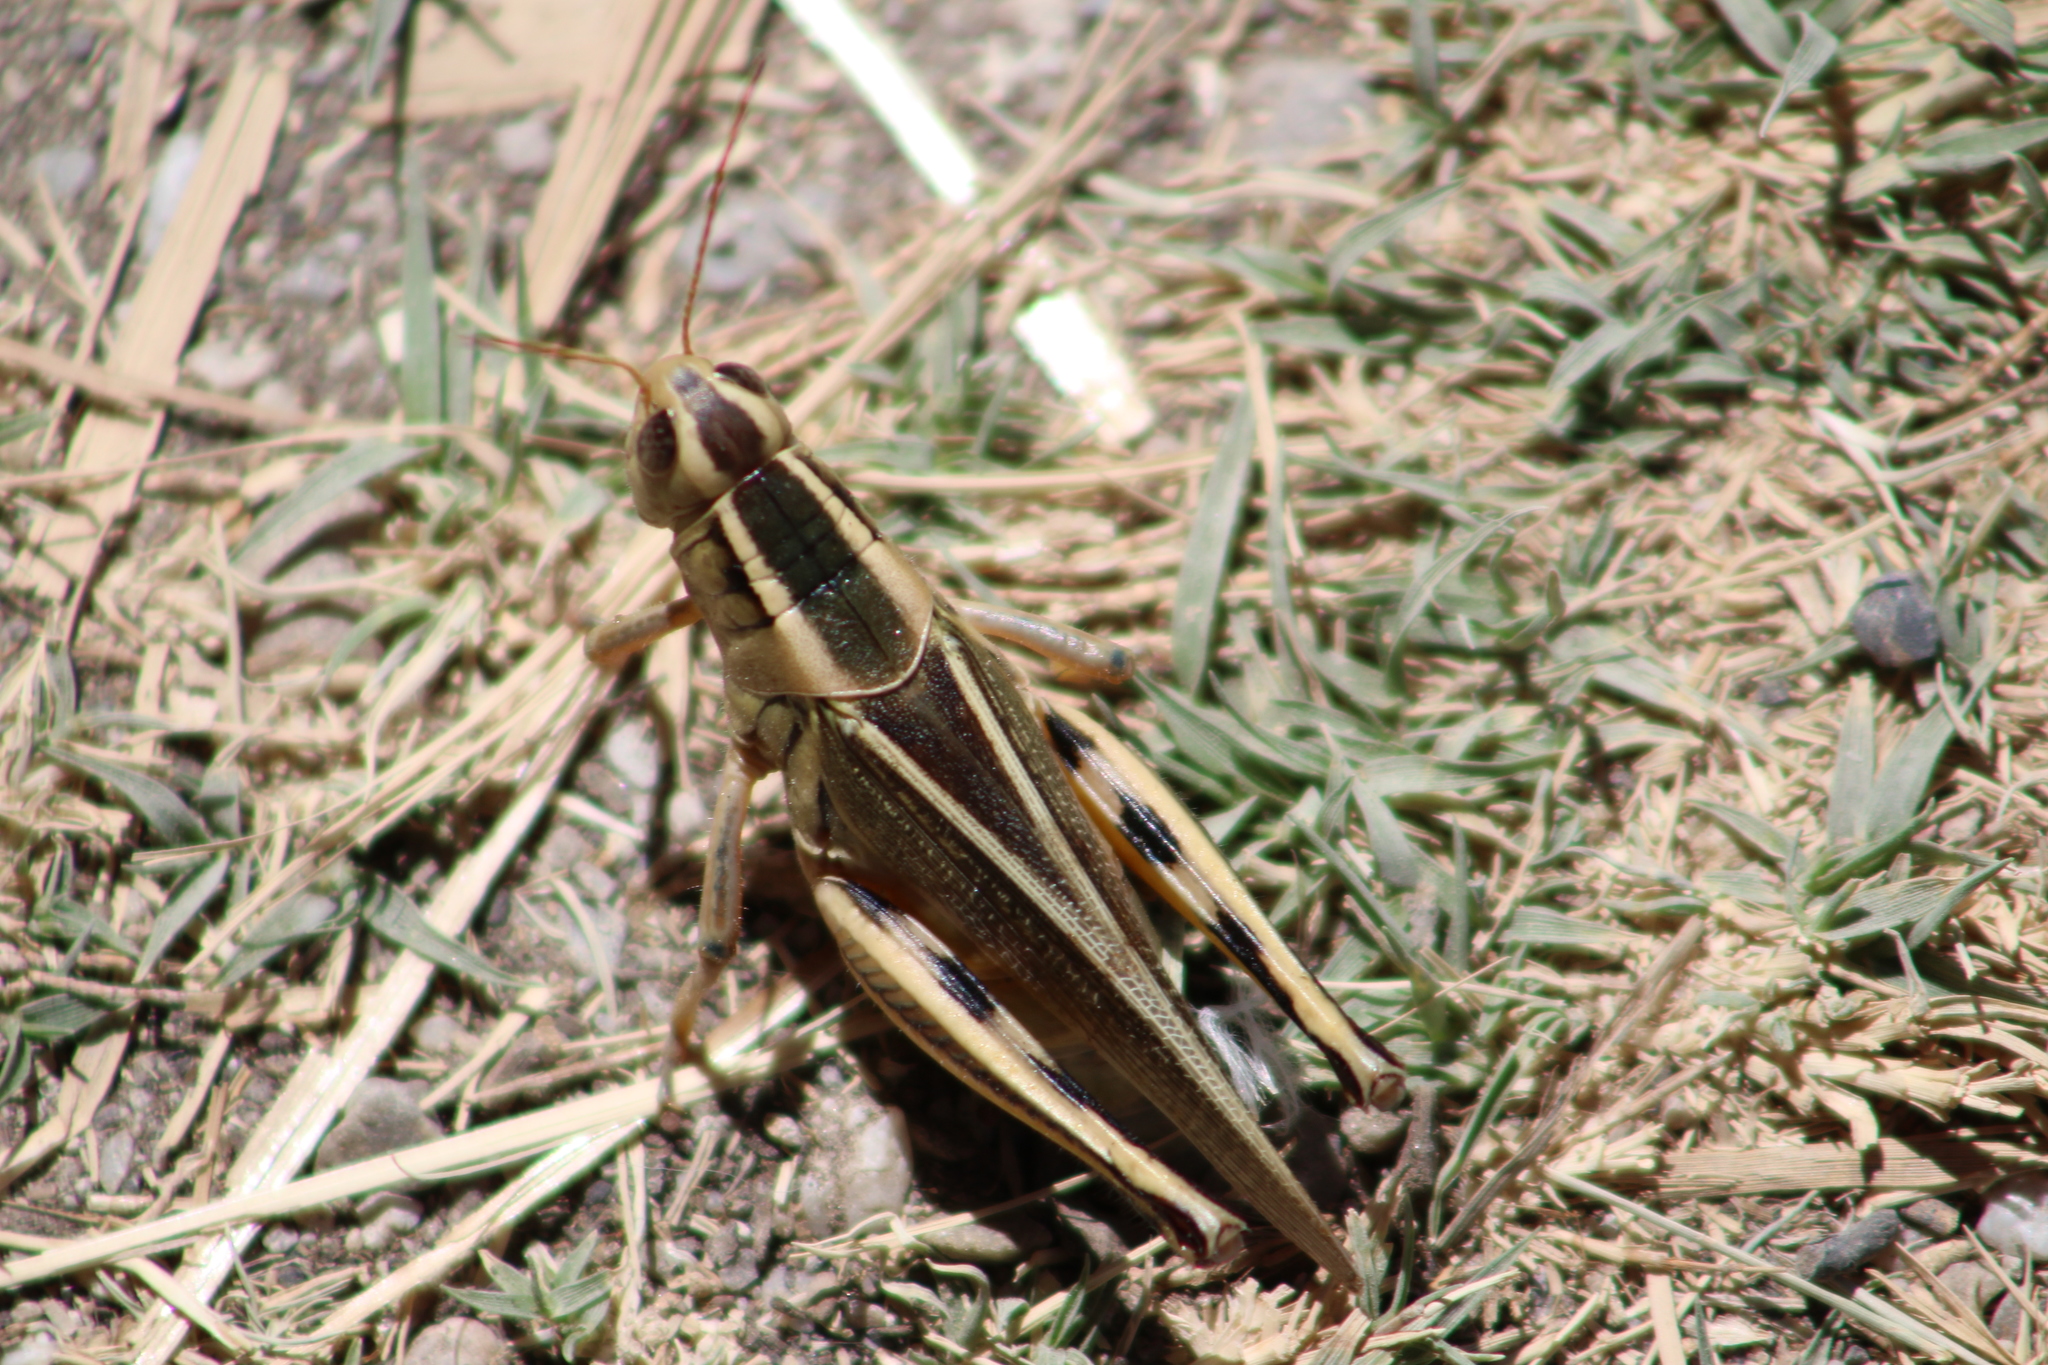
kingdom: Animalia
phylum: Arthropoda
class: Insecta
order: Orthoptera
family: Acrididae
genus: Melanoplus
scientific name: Melanoplus bivittatus
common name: Two-striped grasshopper
